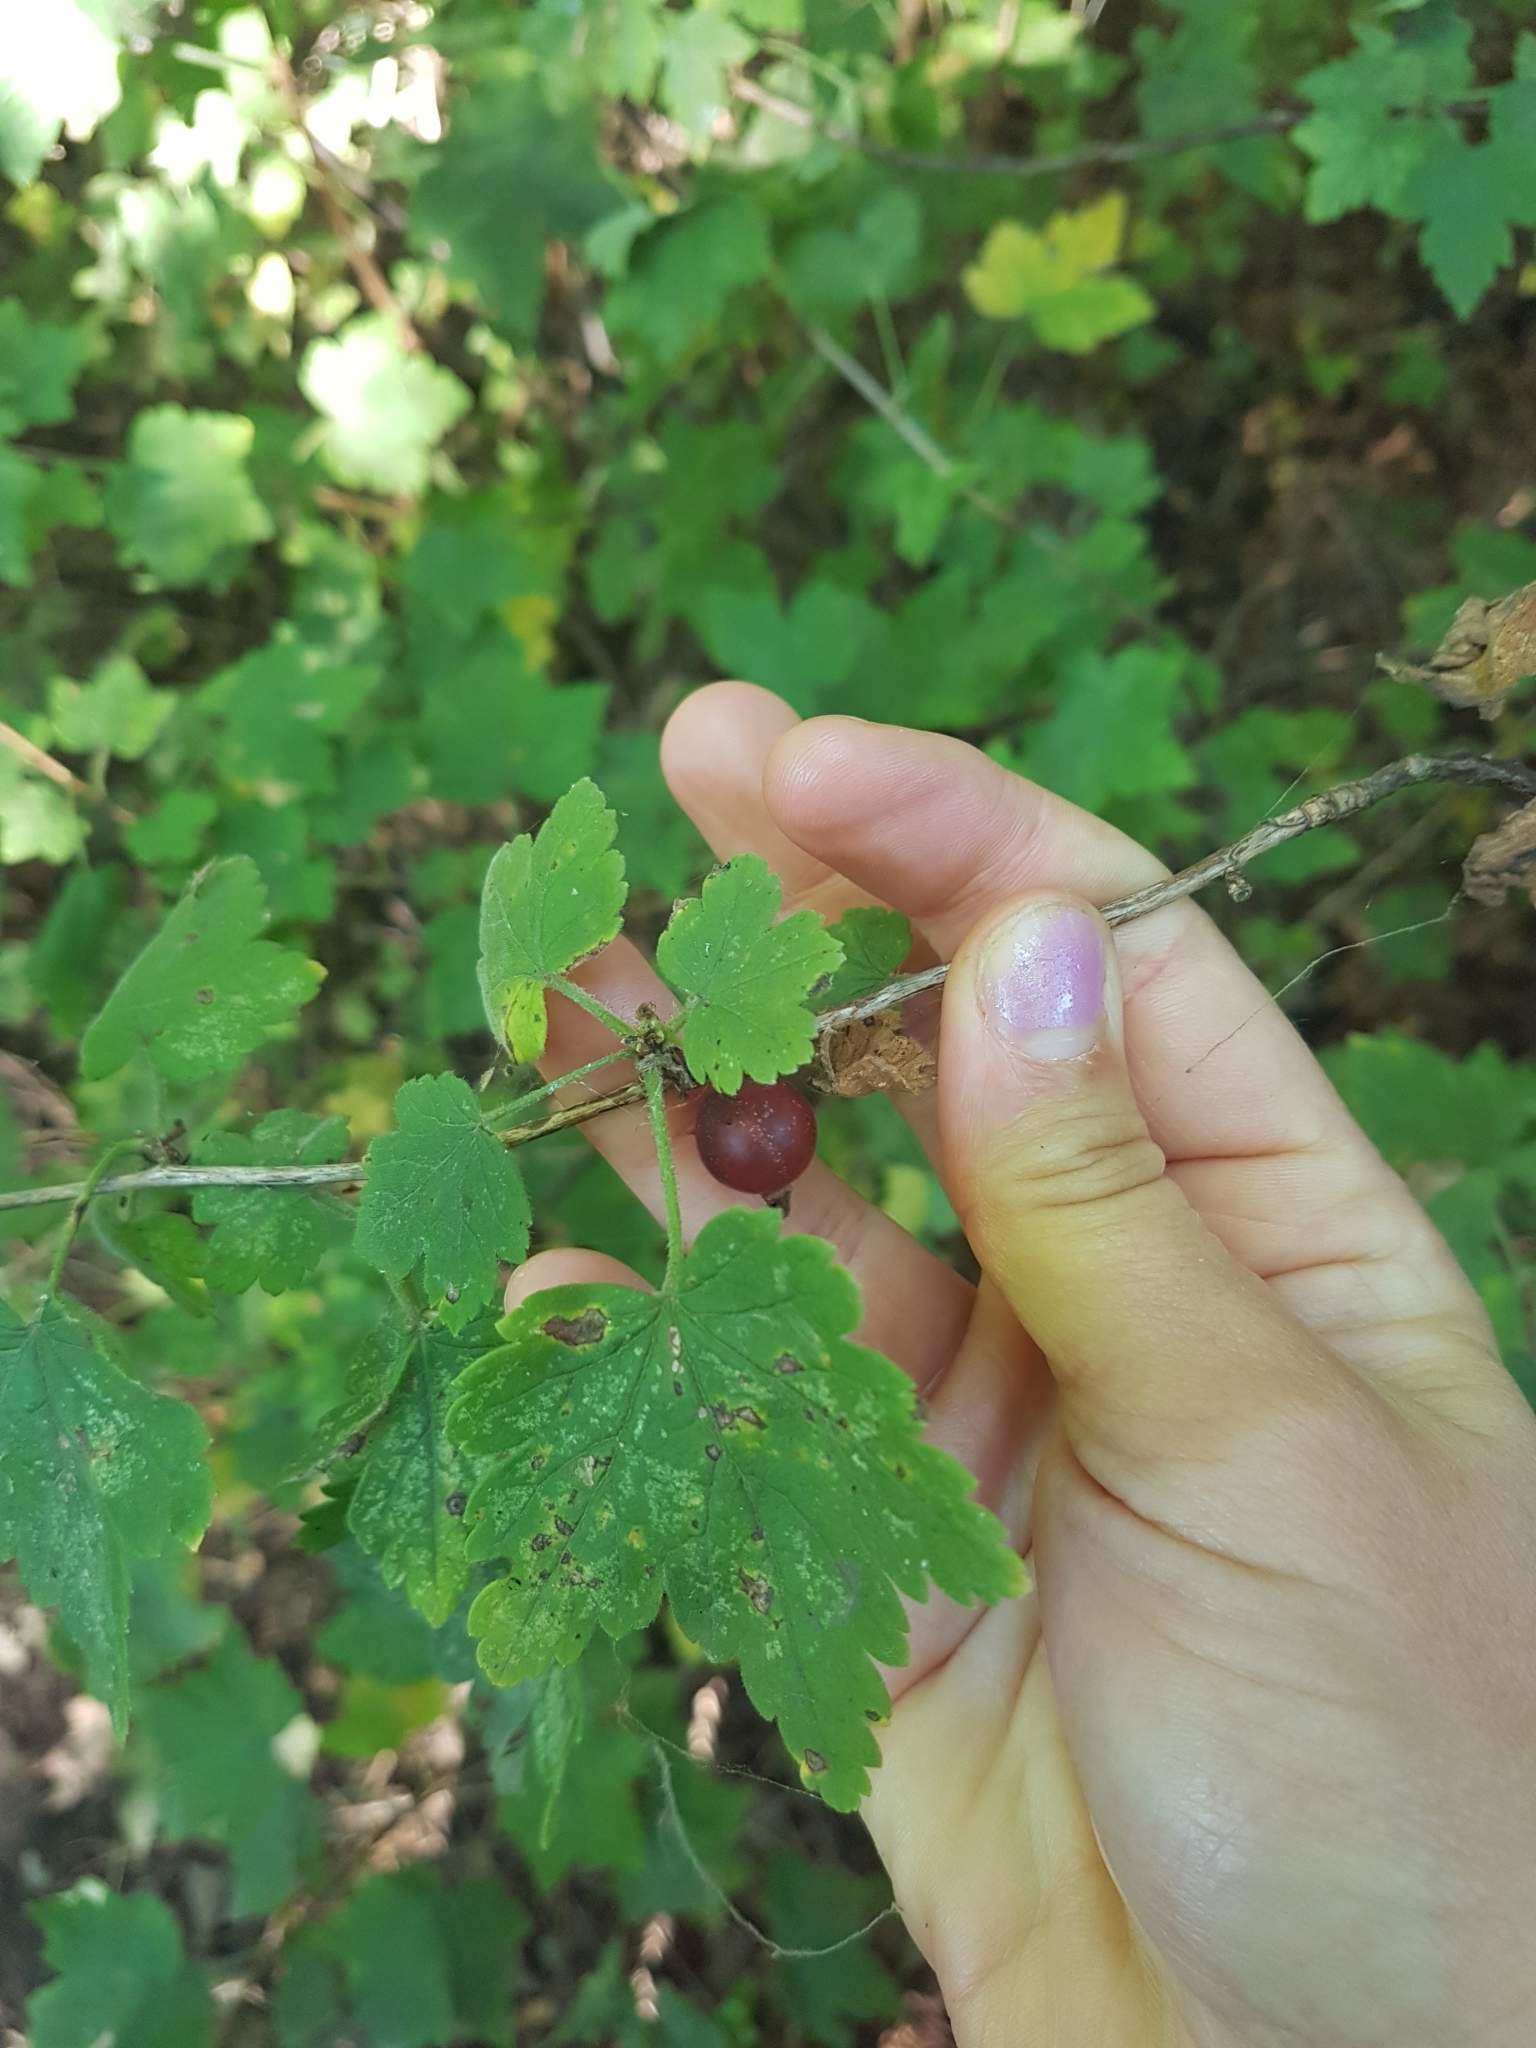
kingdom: Plantae
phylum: Tracheophyta
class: Magnoliopsida
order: Saxifragales
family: Grossulariaceae
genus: Ribes
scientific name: Ribes cynosbati
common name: American gooseberry
